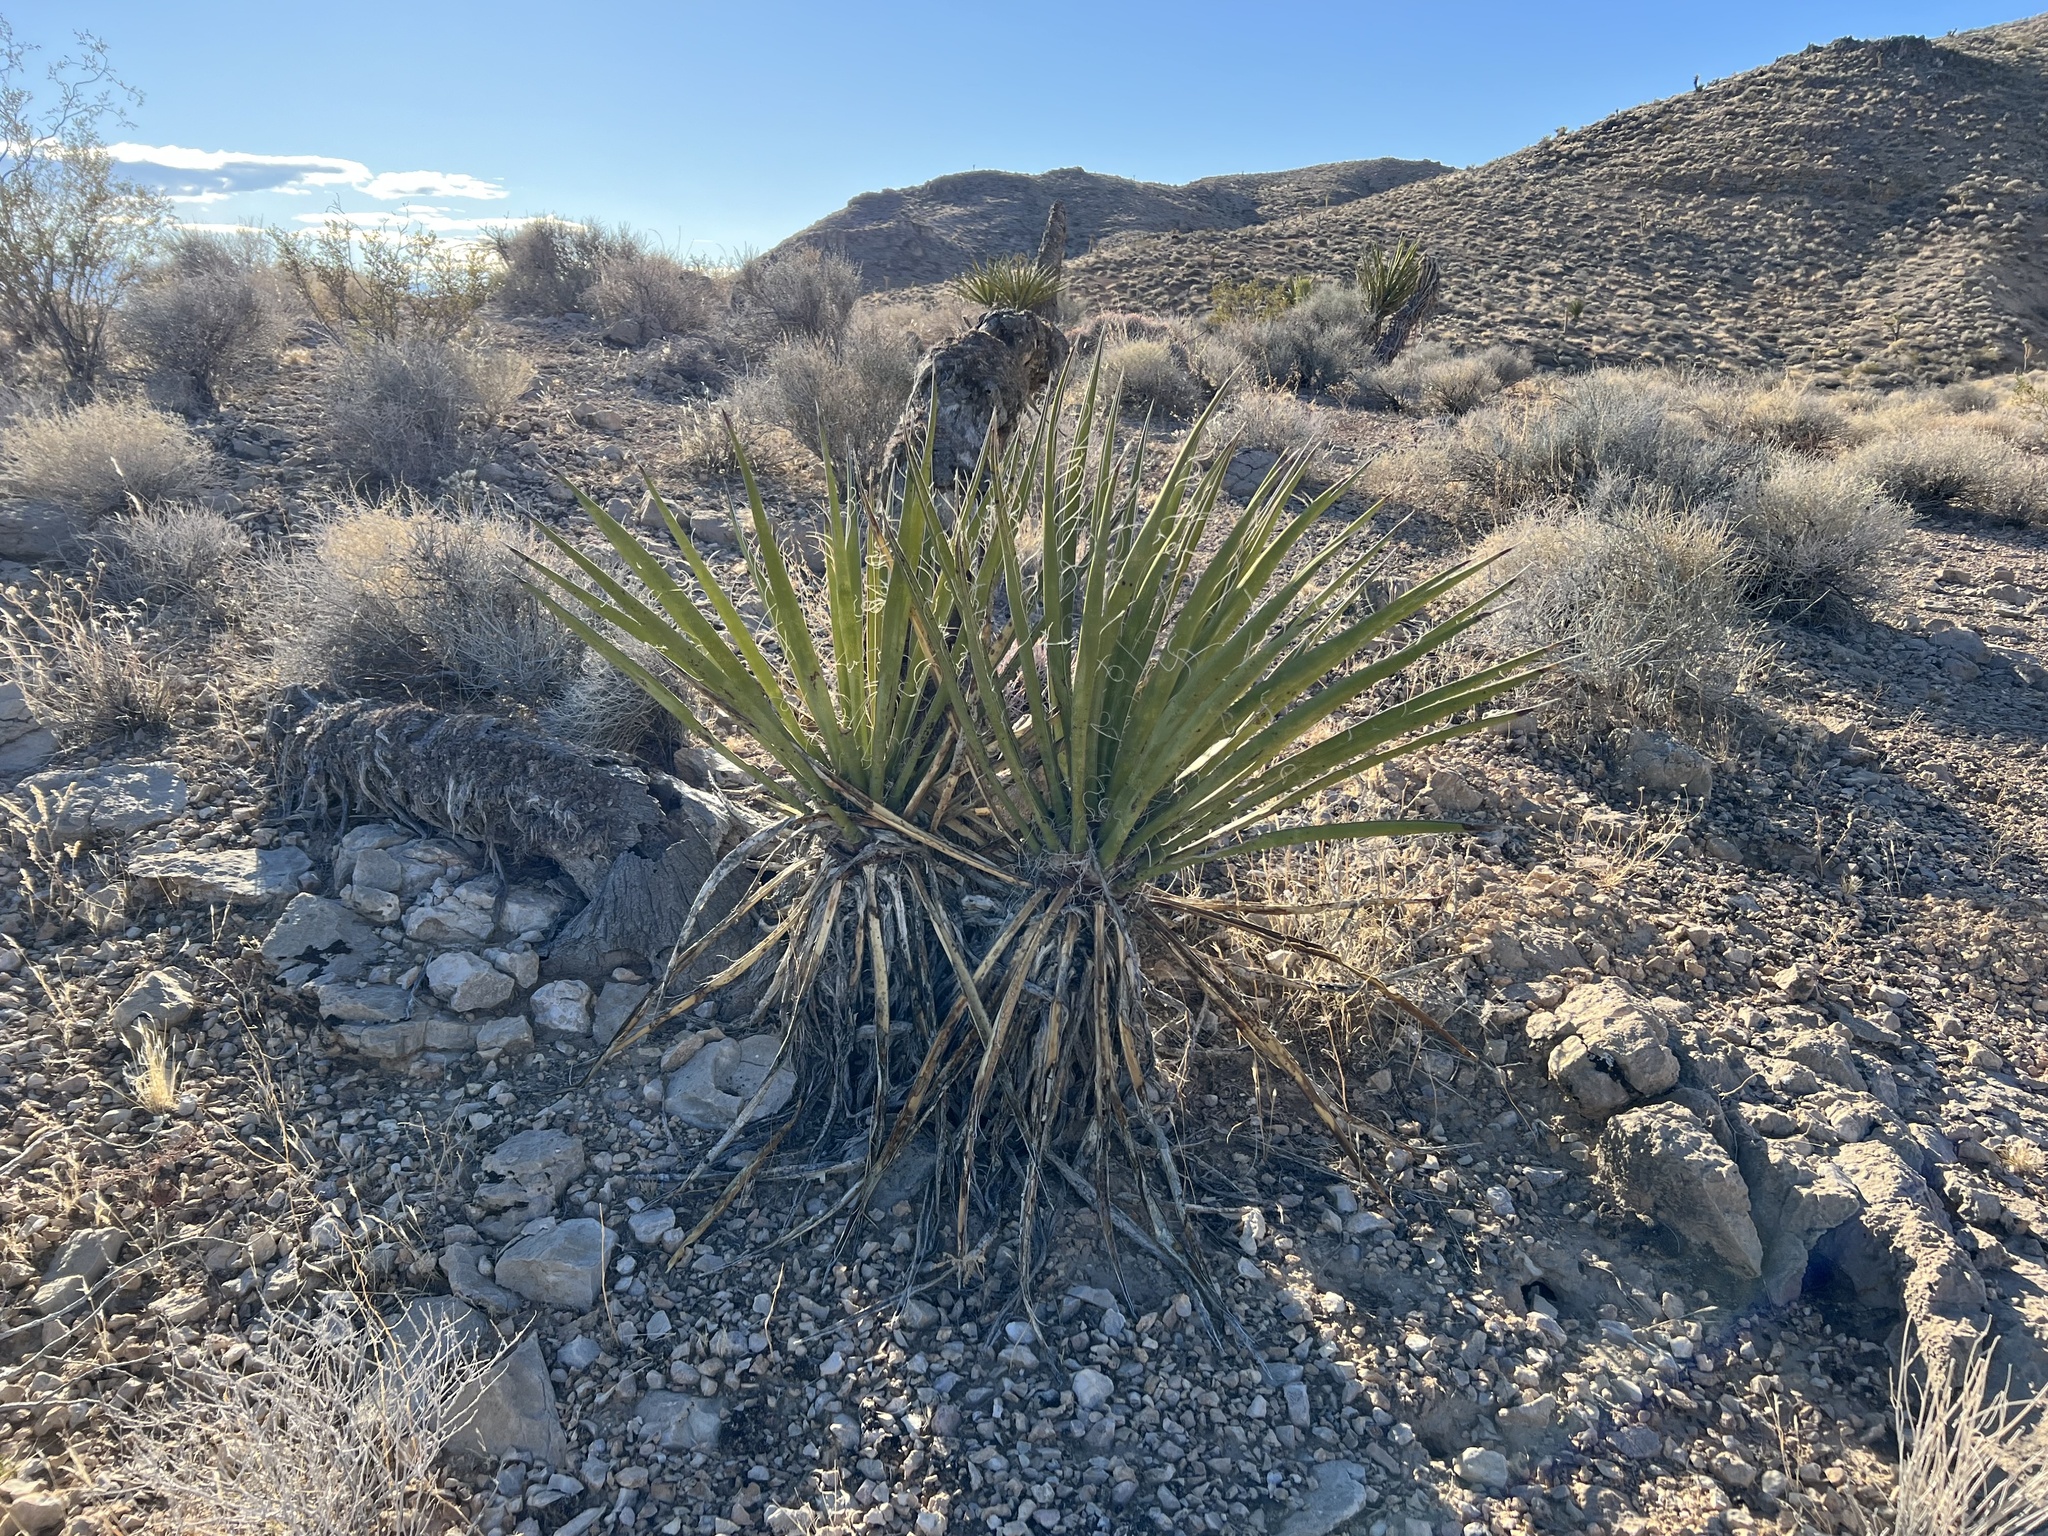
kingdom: Plantae
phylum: Tracheophyta
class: Liliopsida
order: Asparagales
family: Asparagaceae
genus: Yucca
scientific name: Yucca schidigera
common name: Mojave yucca
